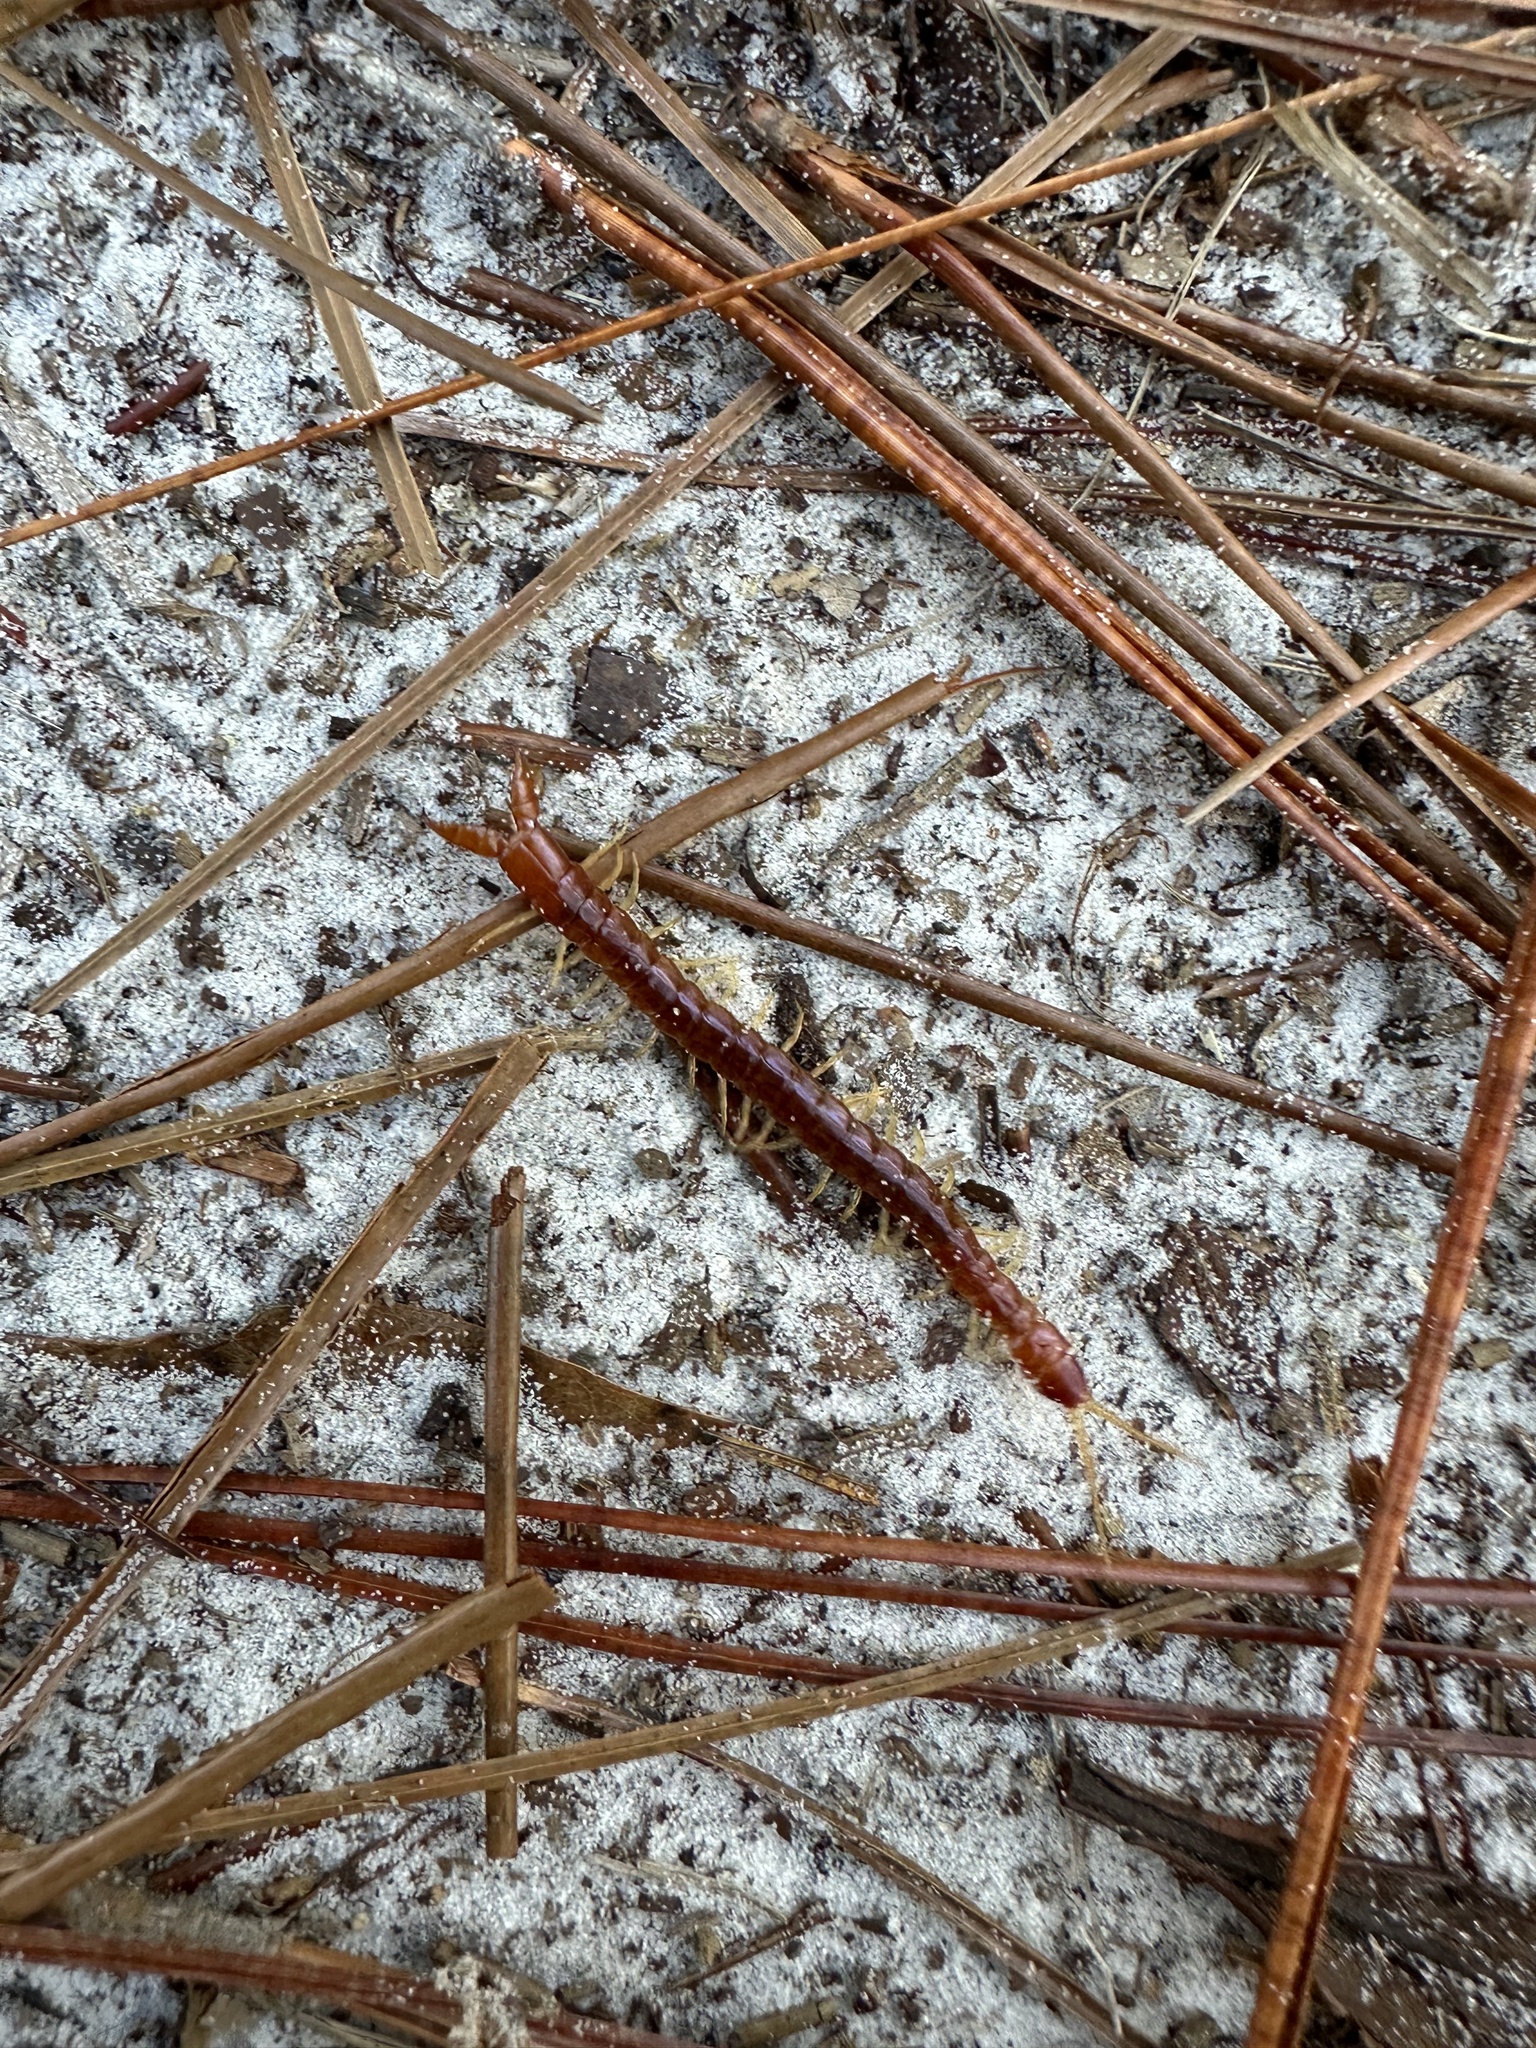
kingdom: Animalia
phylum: Arthropoda
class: Chilopoda
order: Scolopendromorpha
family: Cryptopidae
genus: Theatops
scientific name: Theatops posticus
